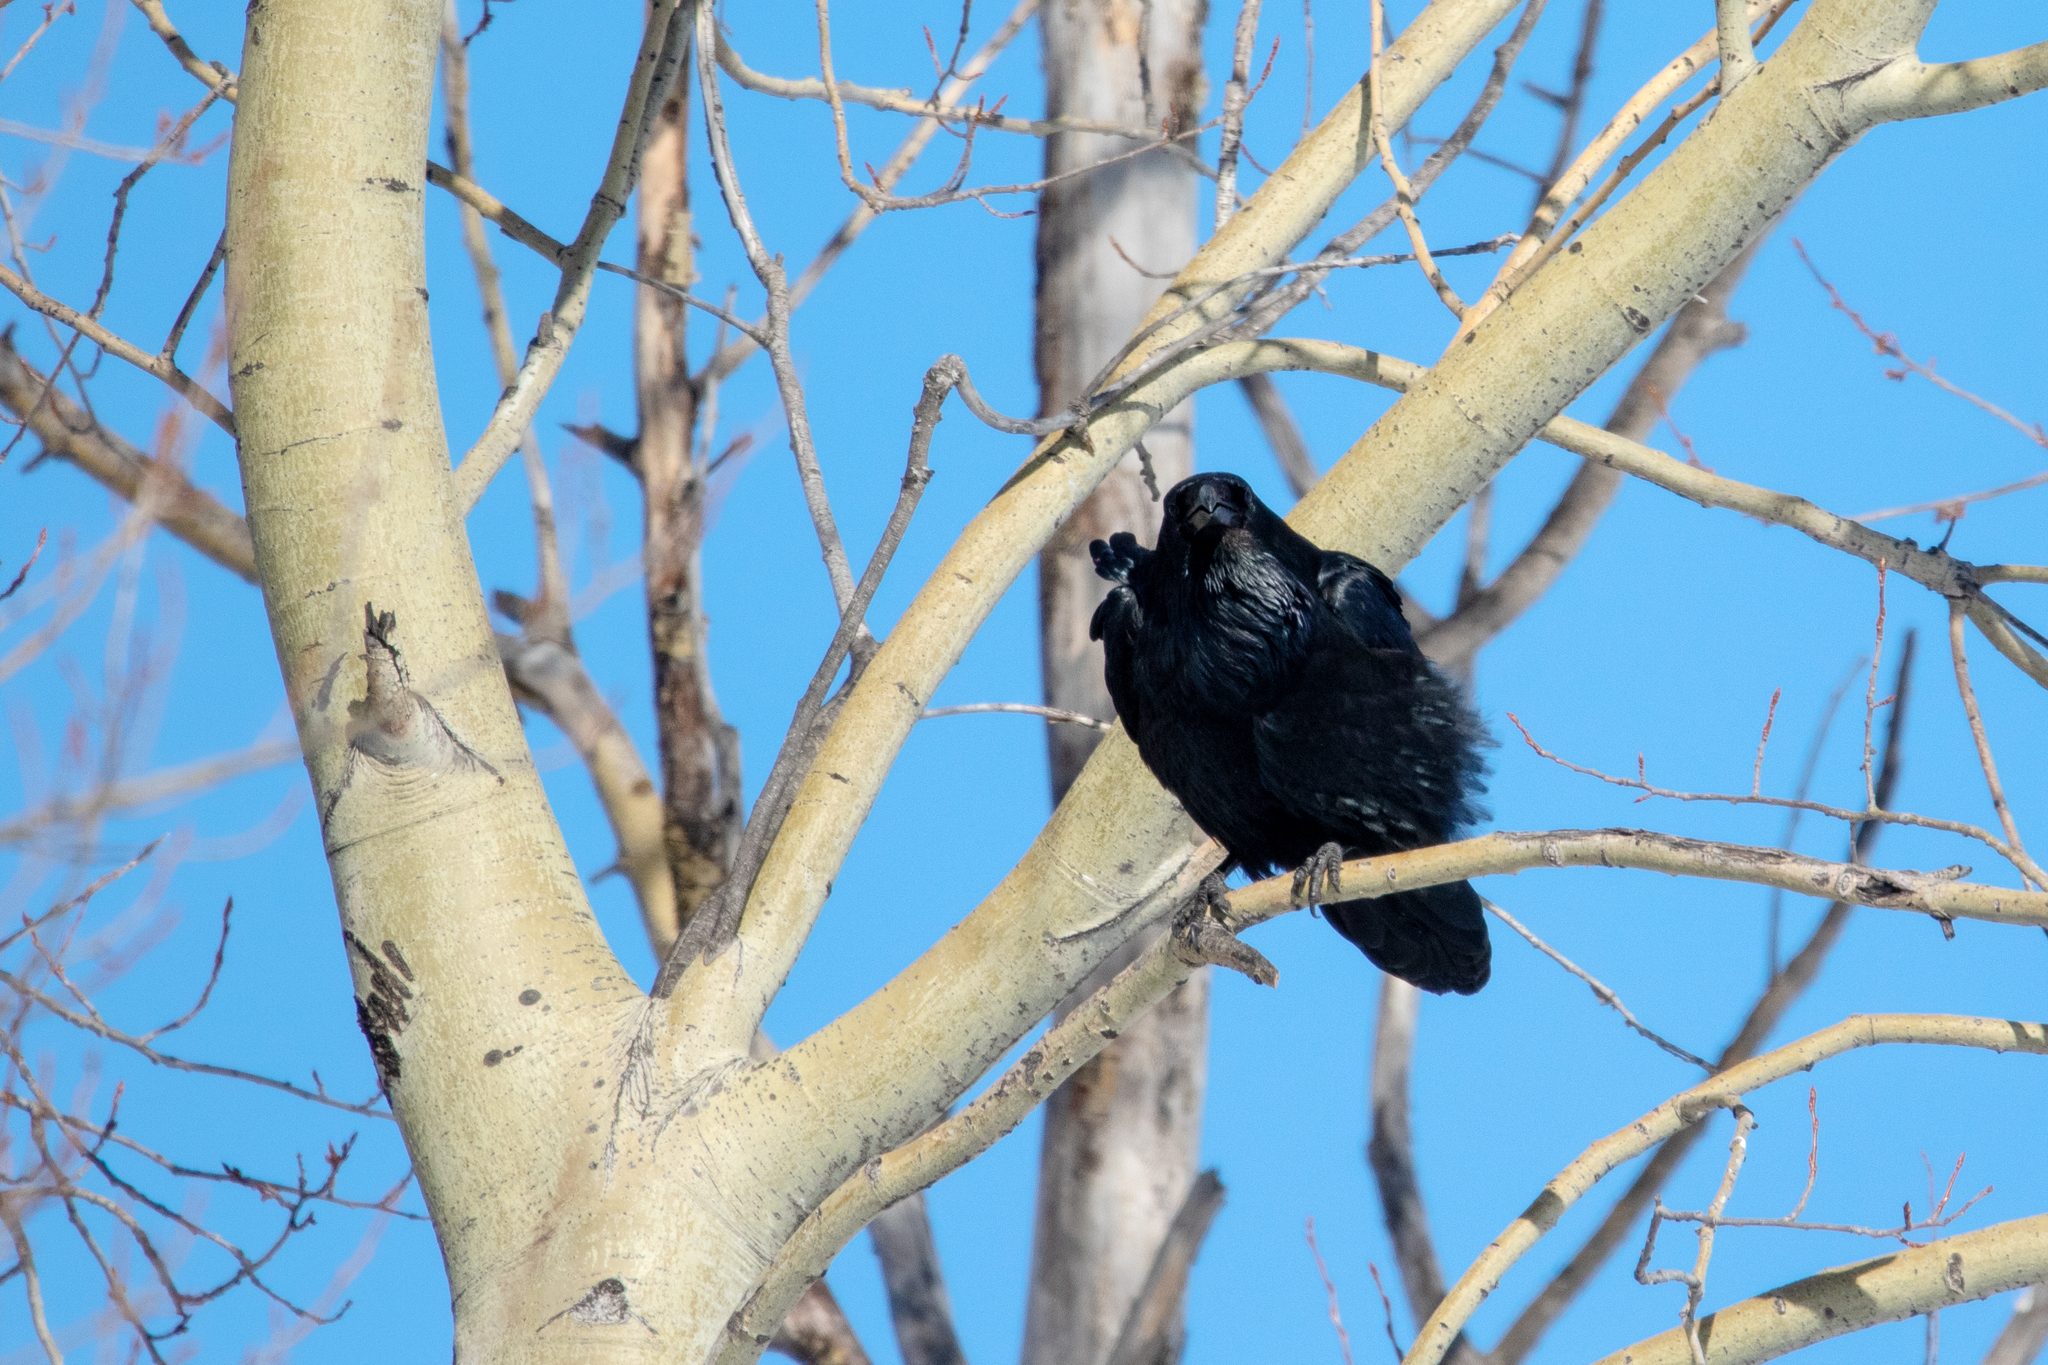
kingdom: Animalia
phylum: Chordata
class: Aves
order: Passeriformes
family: Corvidae
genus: Corvus
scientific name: Corvus corax
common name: Common raven
